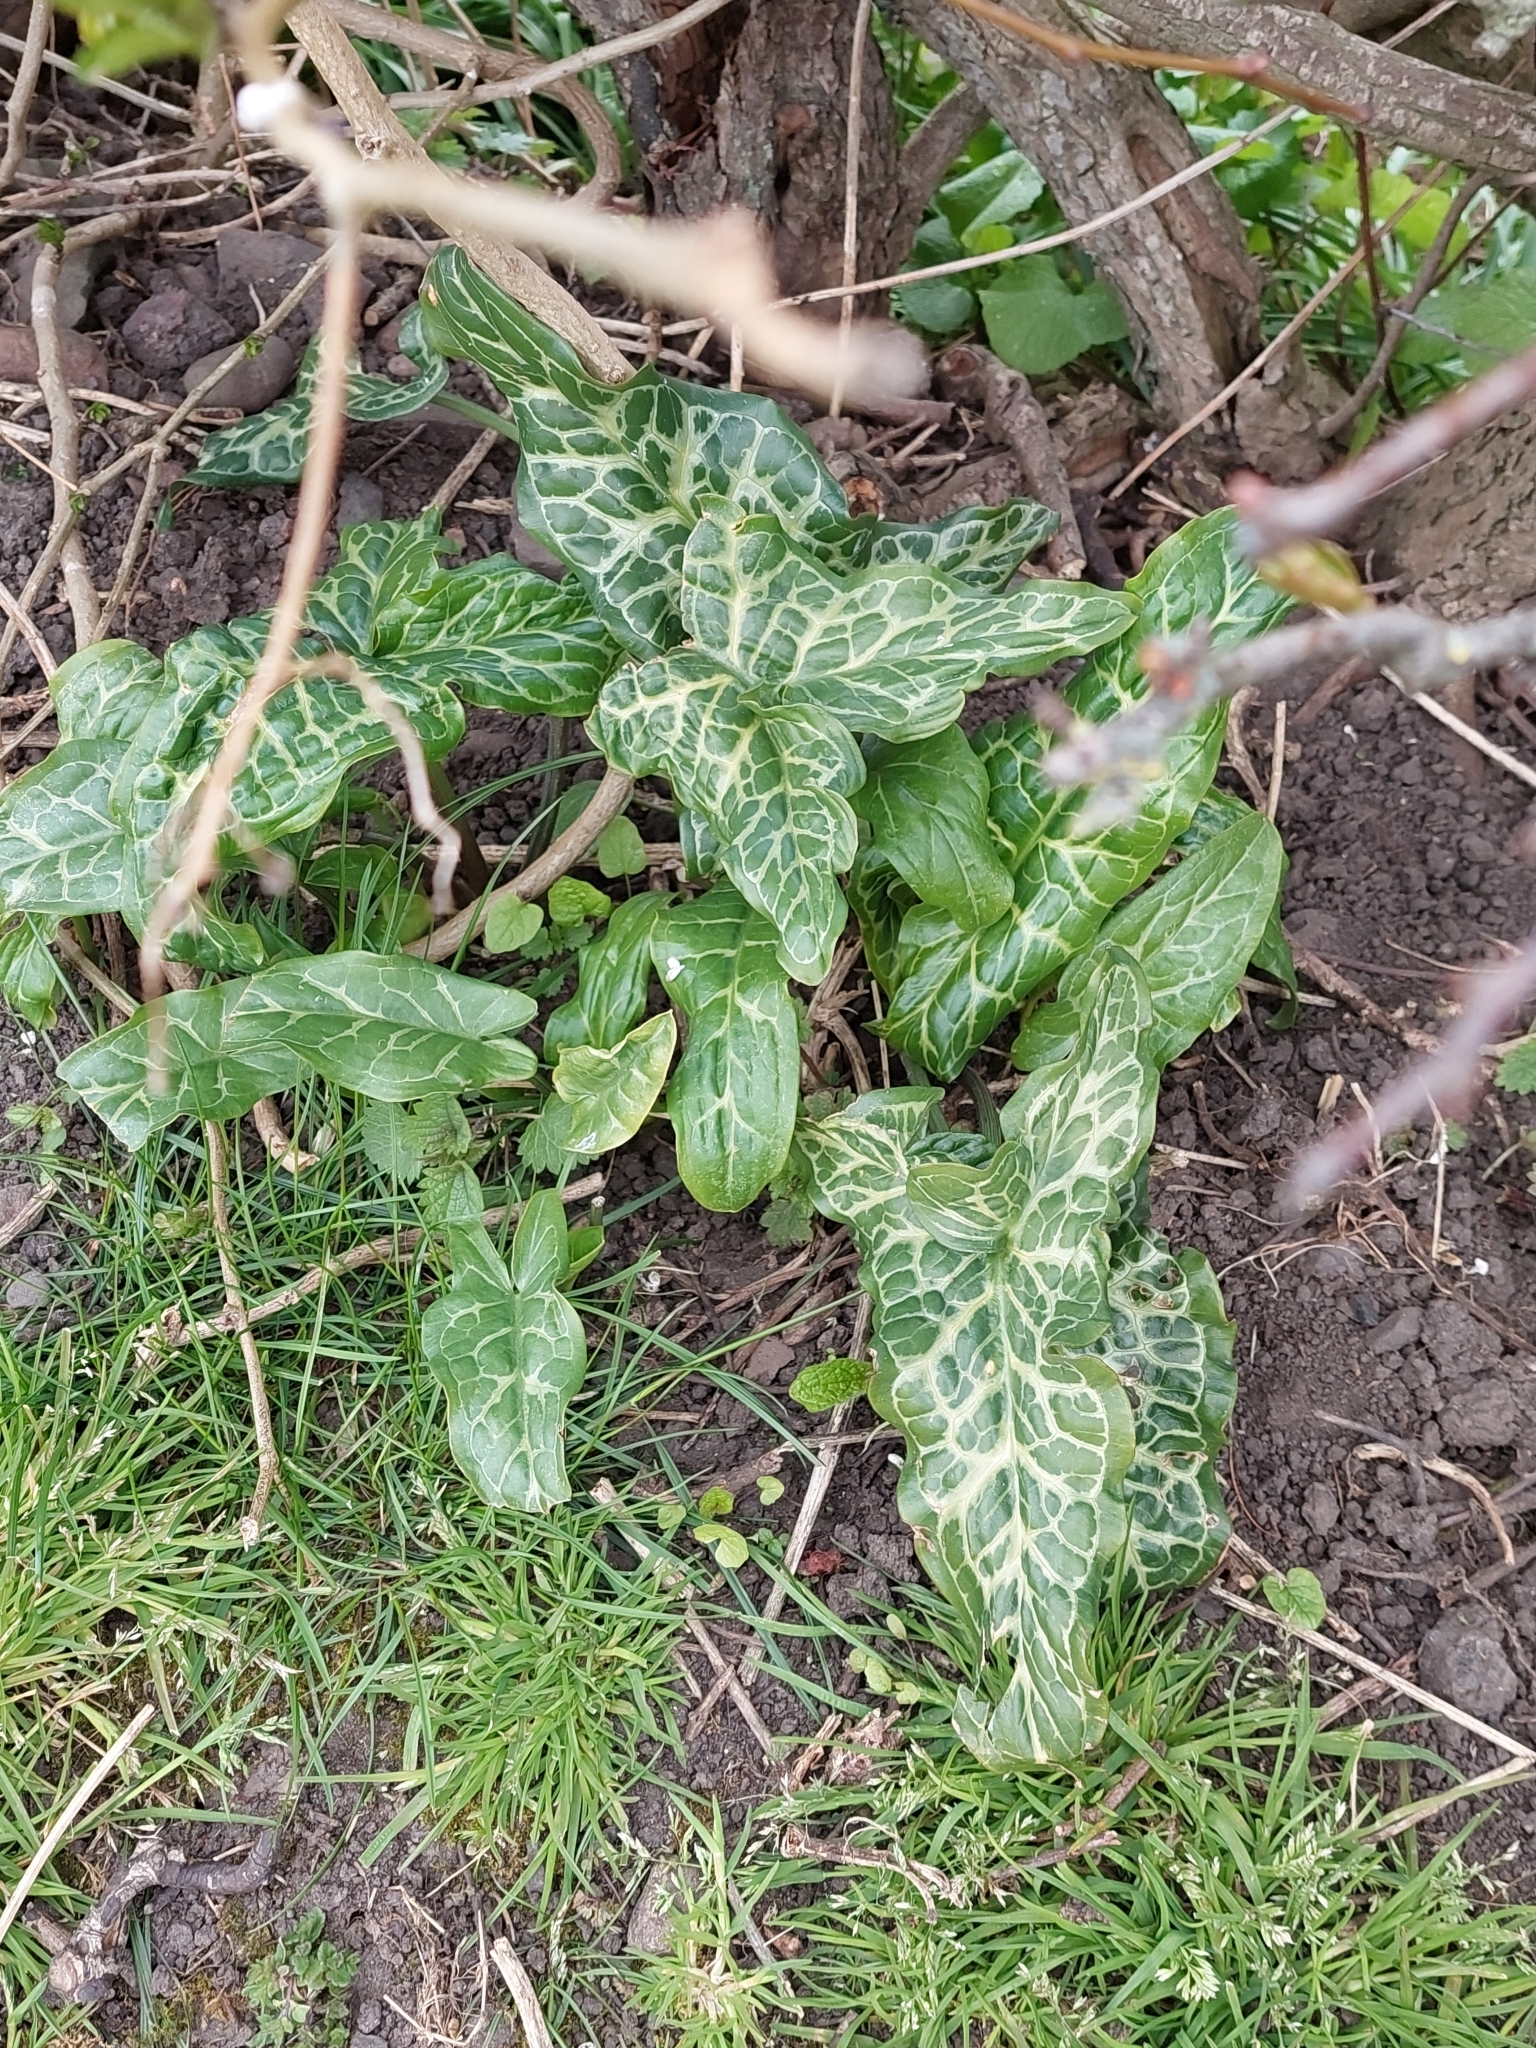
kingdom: Plantae
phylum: Tracheophyta
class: Liliopsida
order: Alismatales
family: Araceae
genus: Arum
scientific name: Arum italicum
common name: Italian lords-and-ladies
